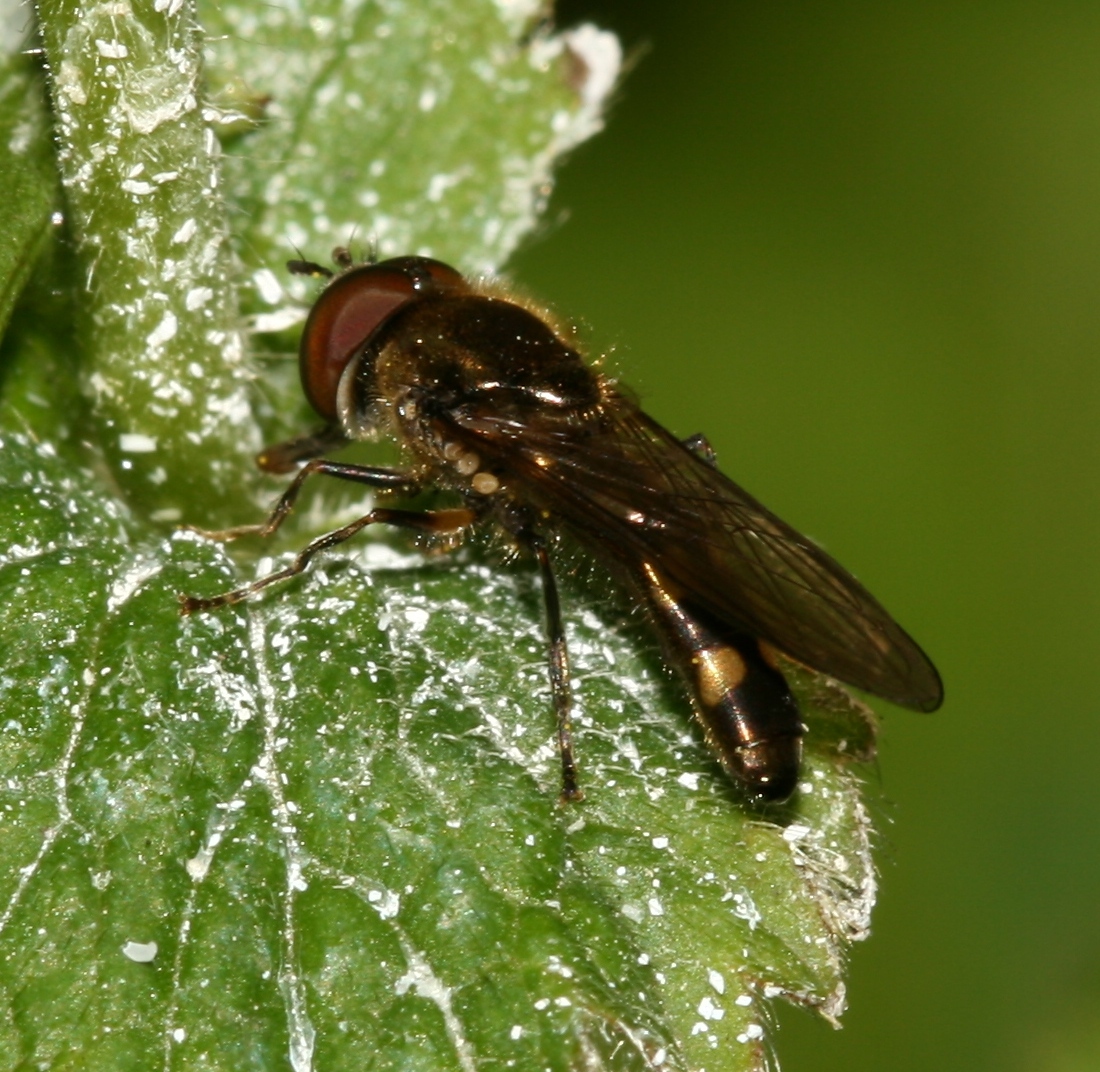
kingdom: Animalia
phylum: Arthropoda
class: Insecta
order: Diptera
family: Syrphidae
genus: Platycheirus
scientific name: Platycheirus scutatus
